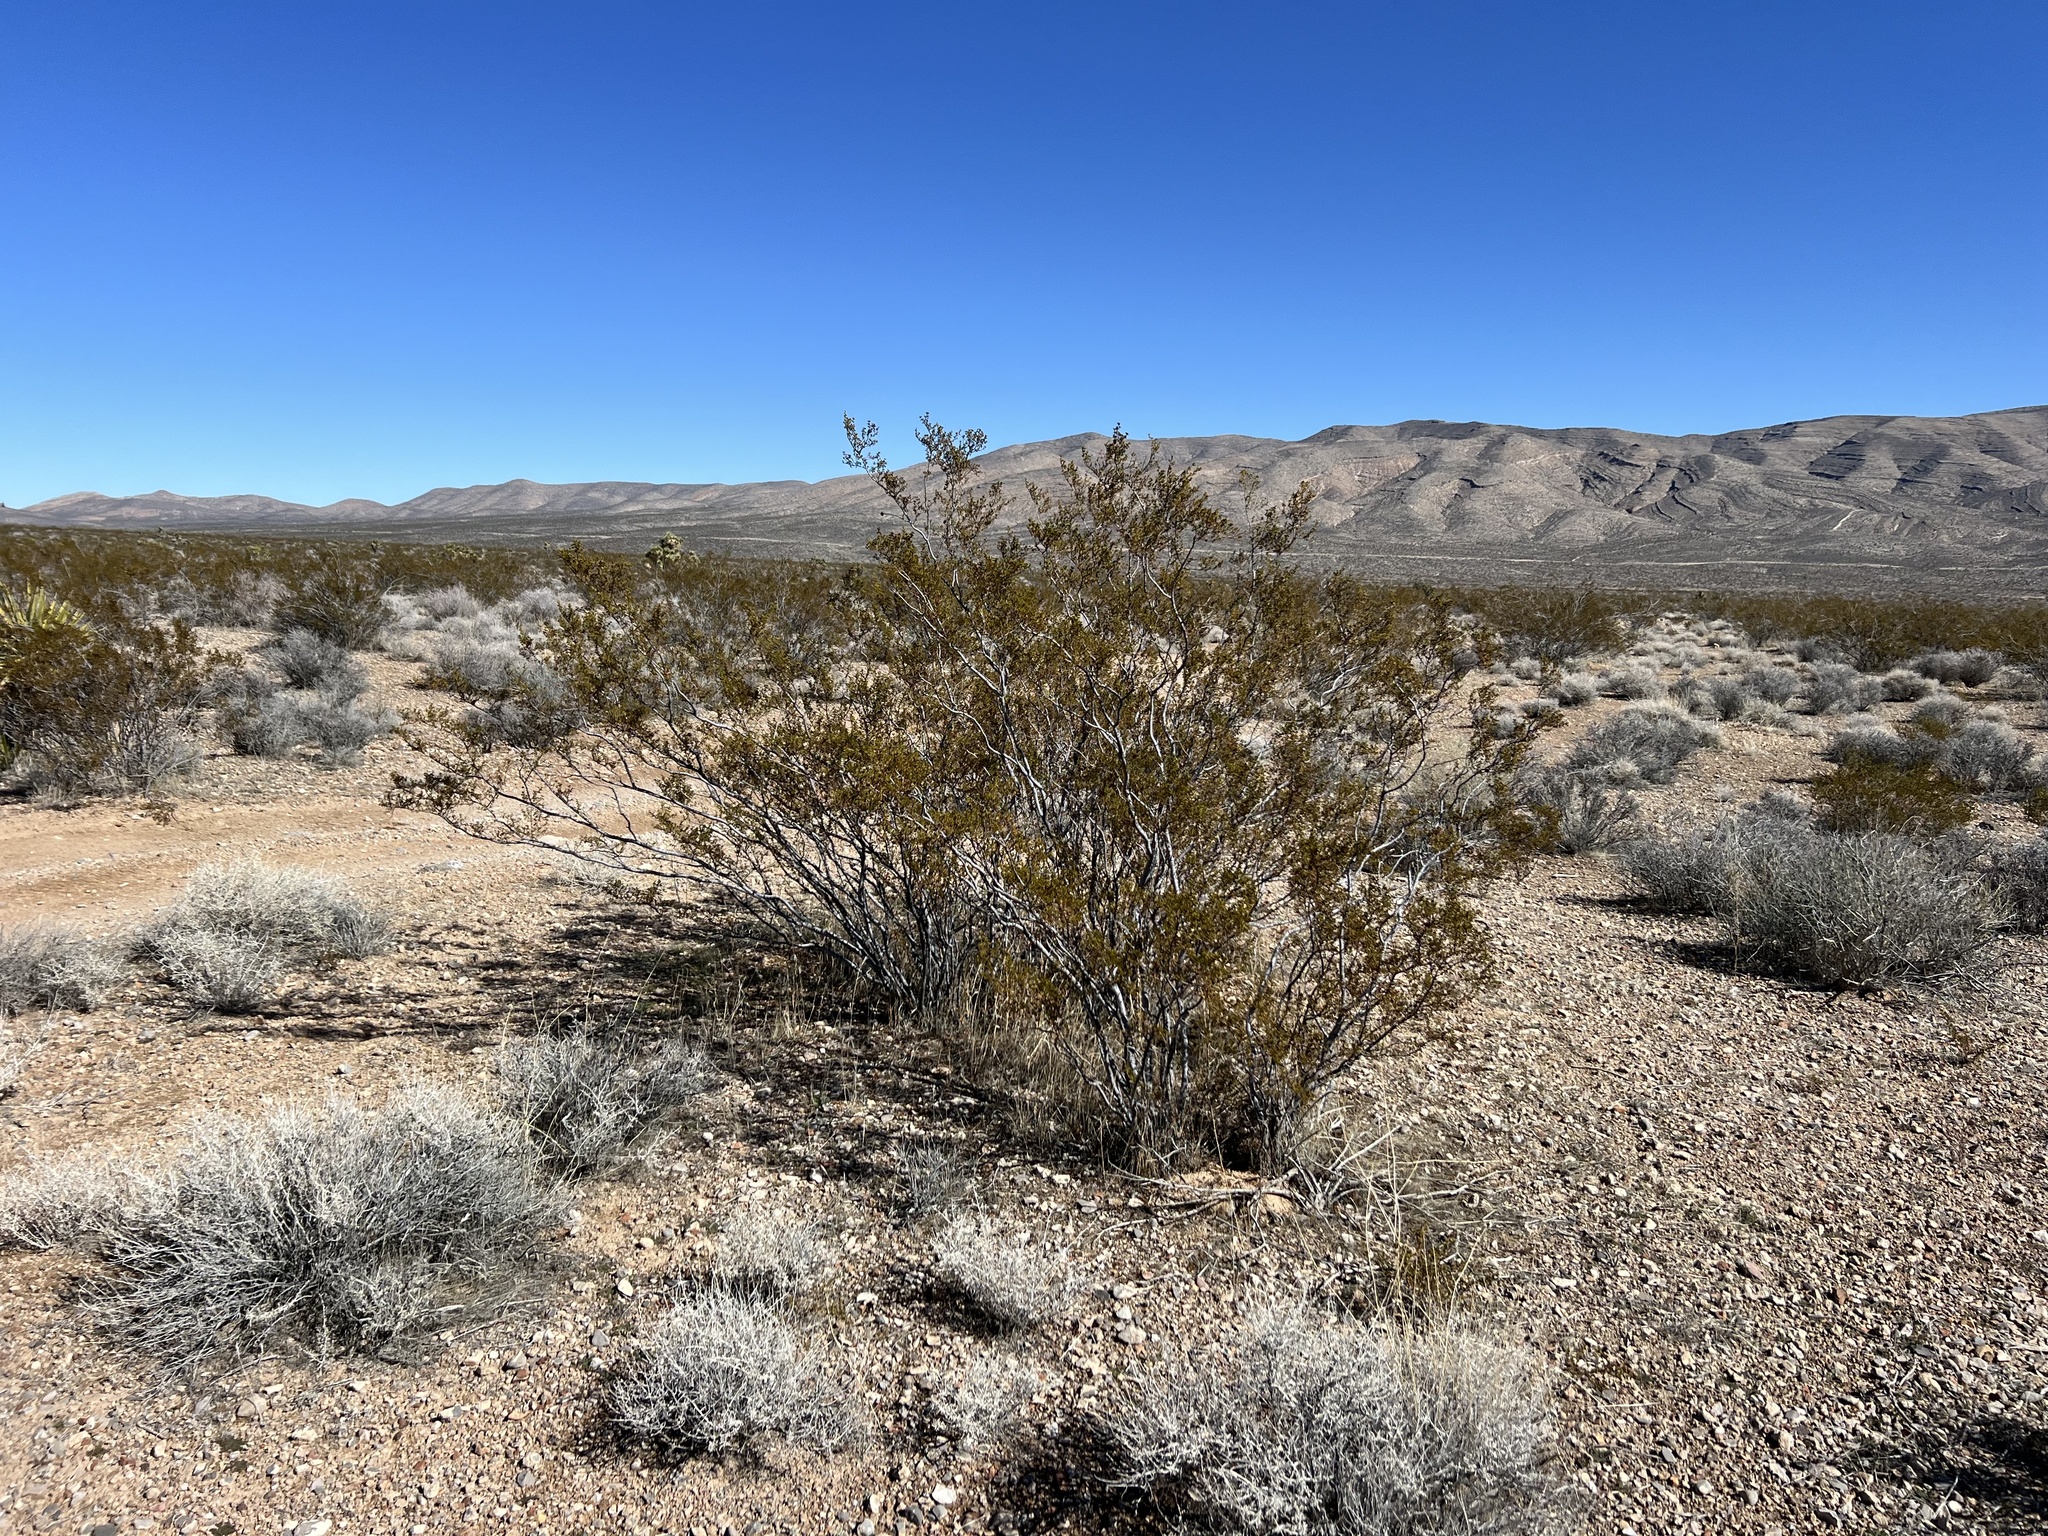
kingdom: Plantae
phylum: Tracheophyta
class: Magnoliopsida
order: Zygophyllales
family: Zygophyllaceae
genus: Larrea
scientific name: Larrea tridentata
